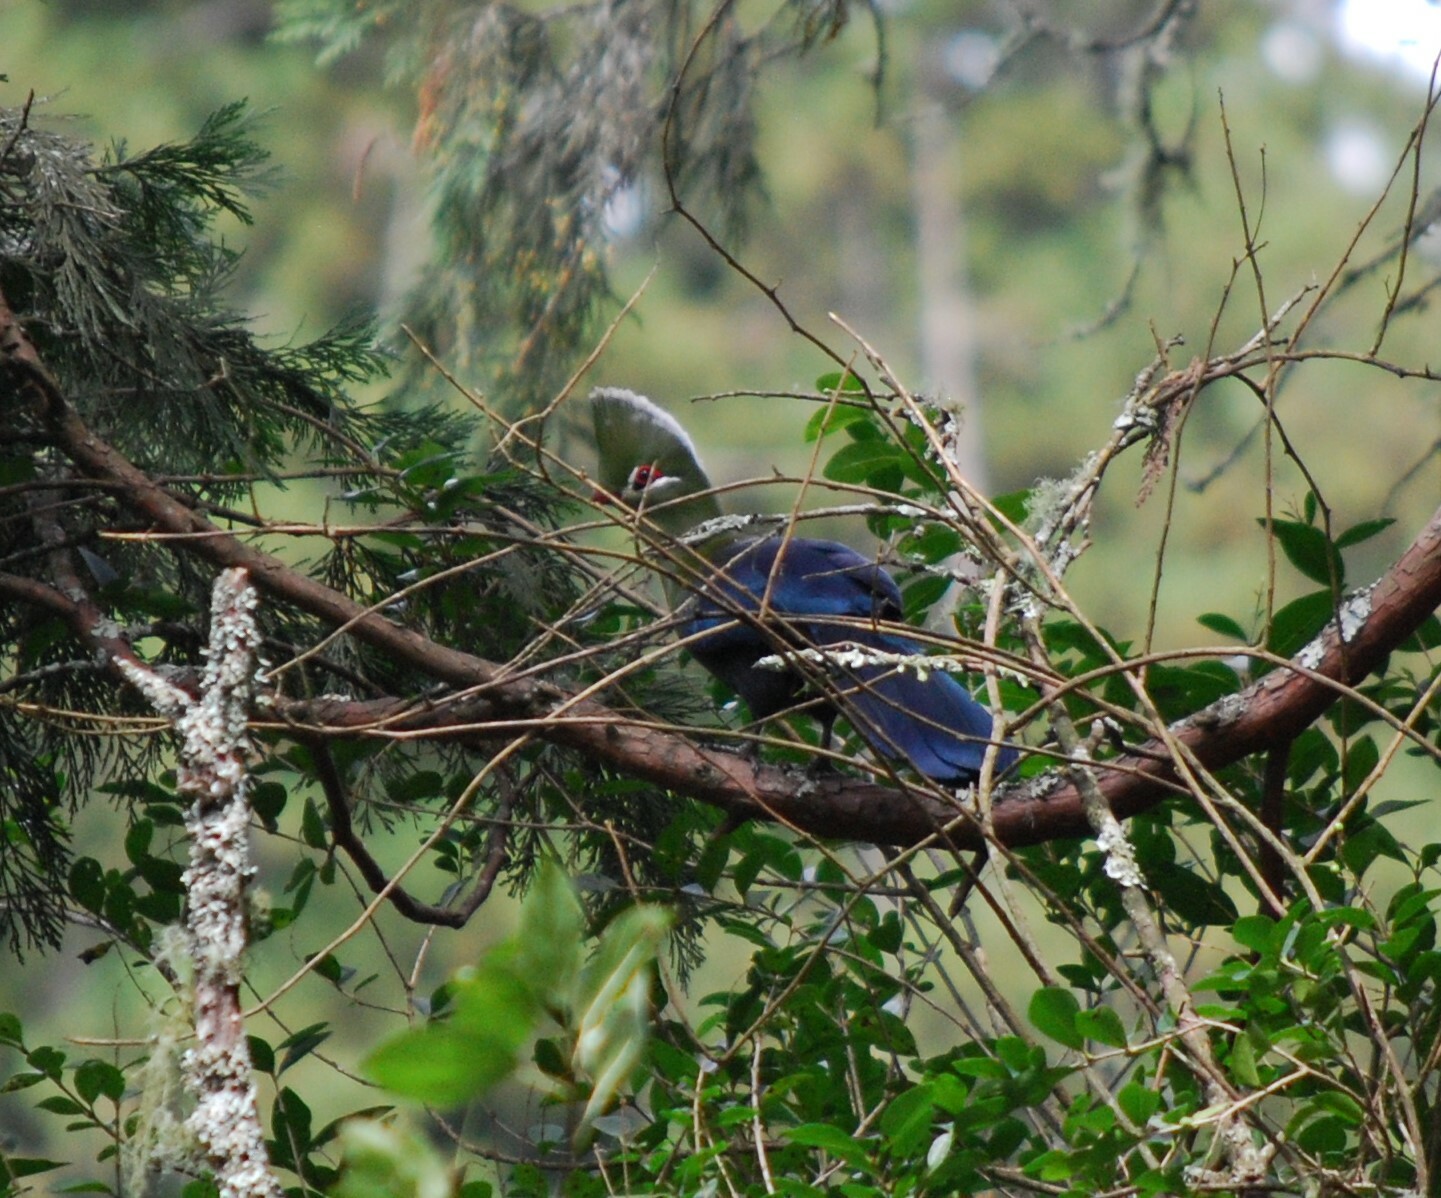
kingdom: Animalia
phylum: Chordata
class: Aves
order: Musophagiformes
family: Musophagidae
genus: Tauraco
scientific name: Tauraco corythaix
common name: Knysna turaco
